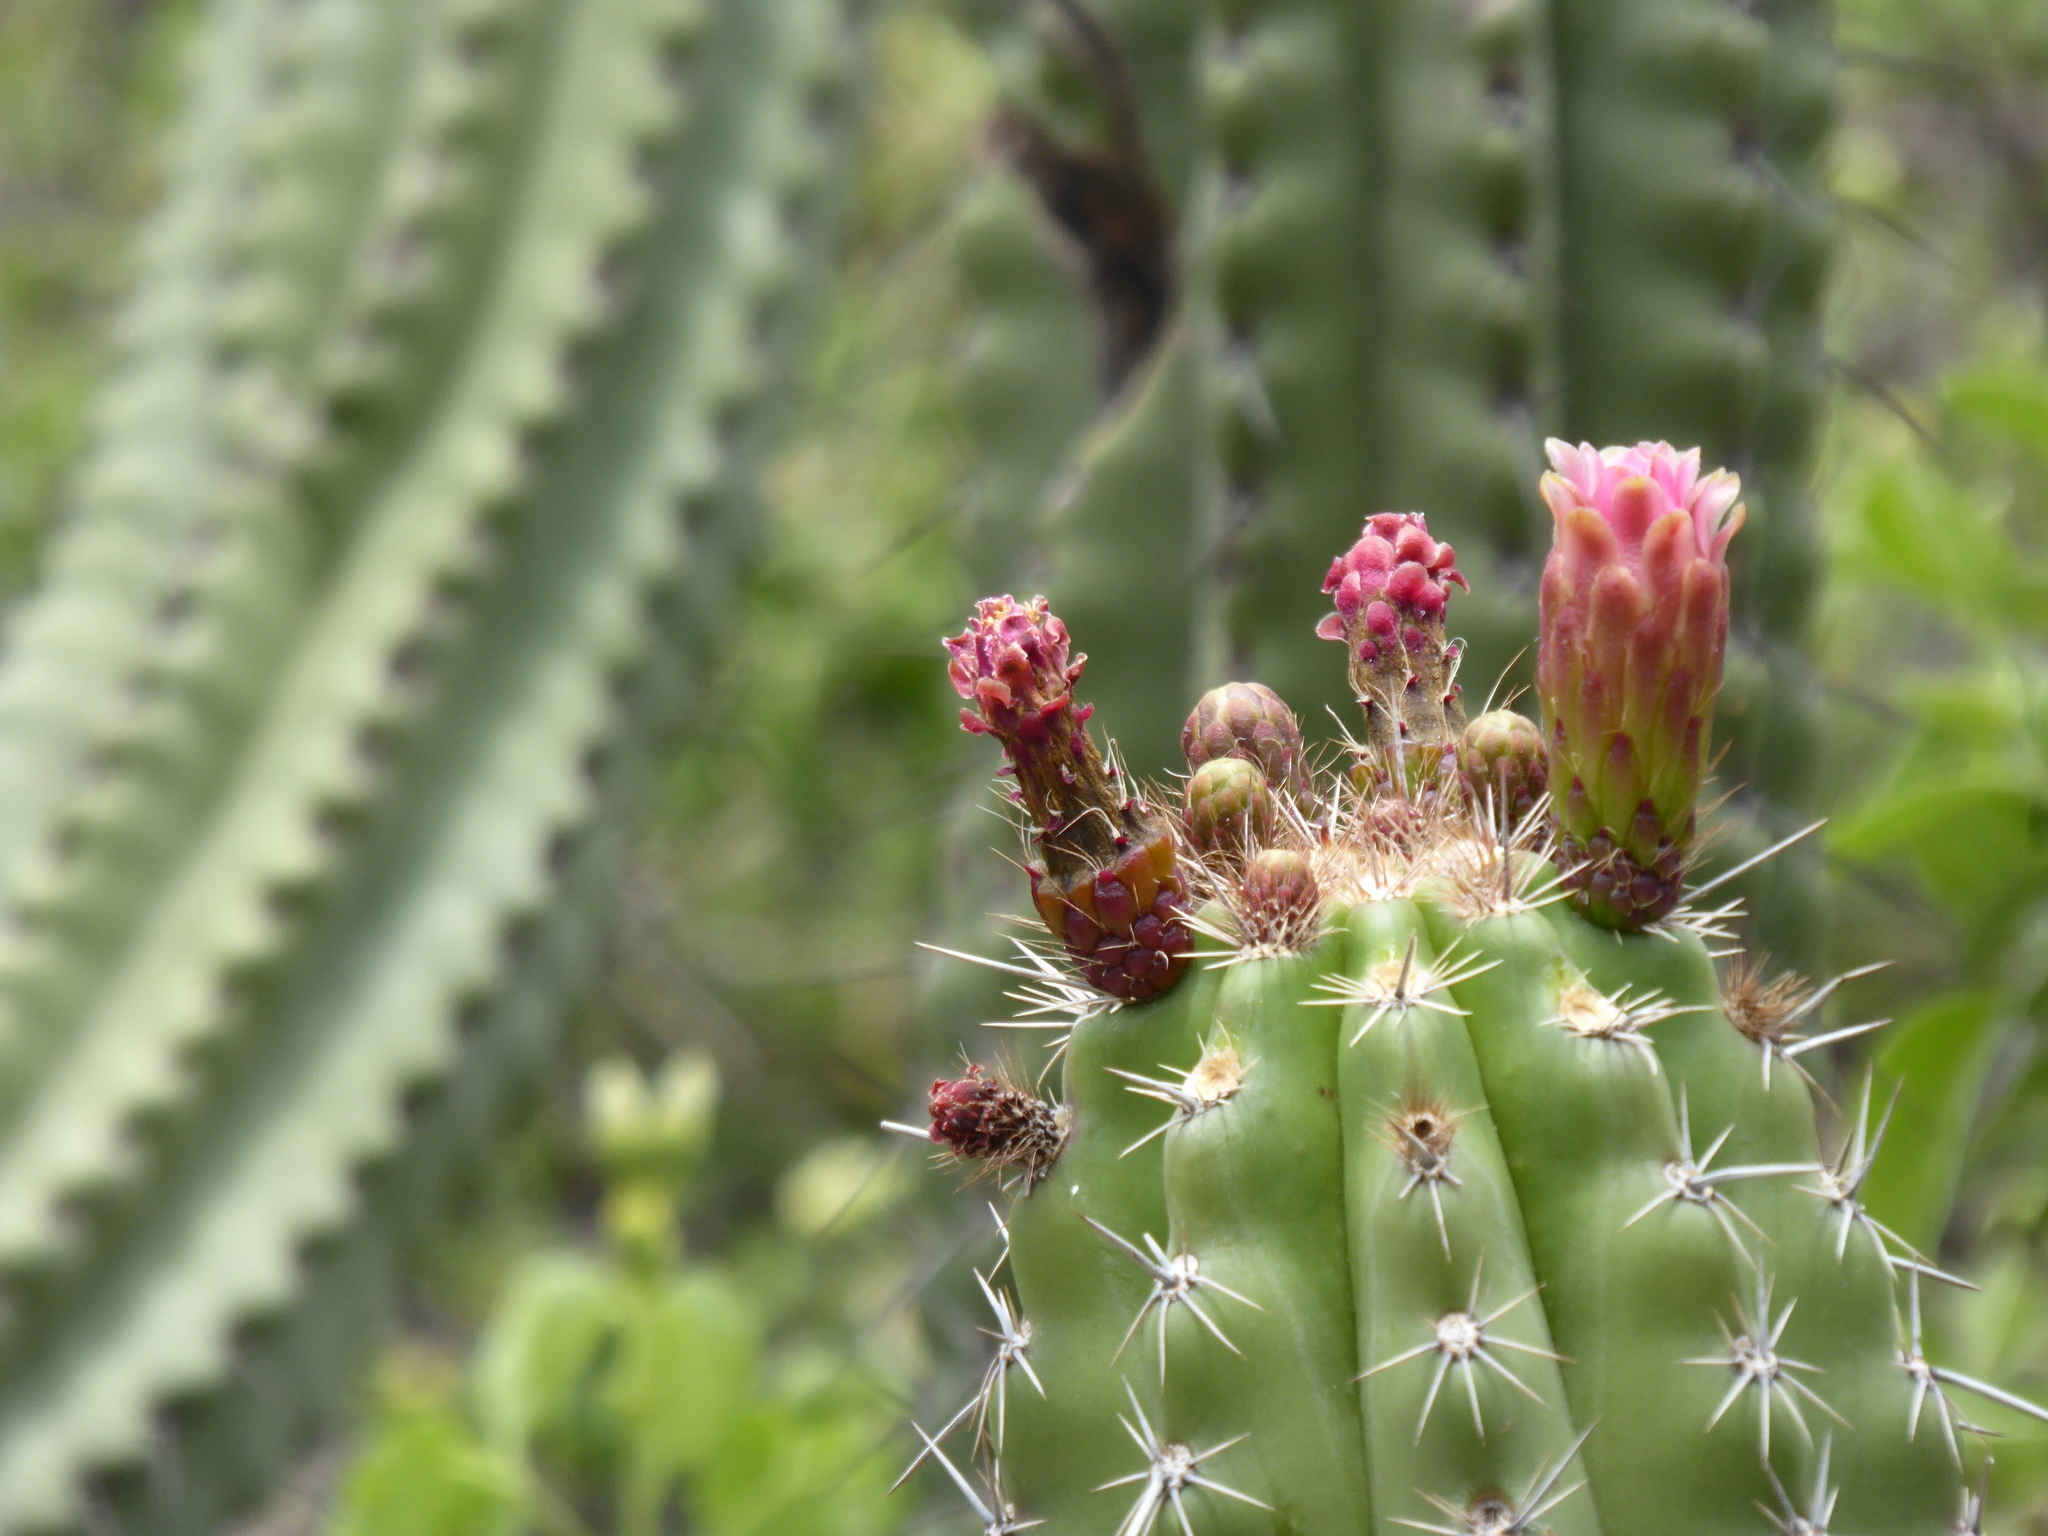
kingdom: Plantae
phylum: Tracheophyta
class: Magnoliopsida
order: Caryophyllales
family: Cactaceae
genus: Stenocereus
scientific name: Stenocereus stellatus
